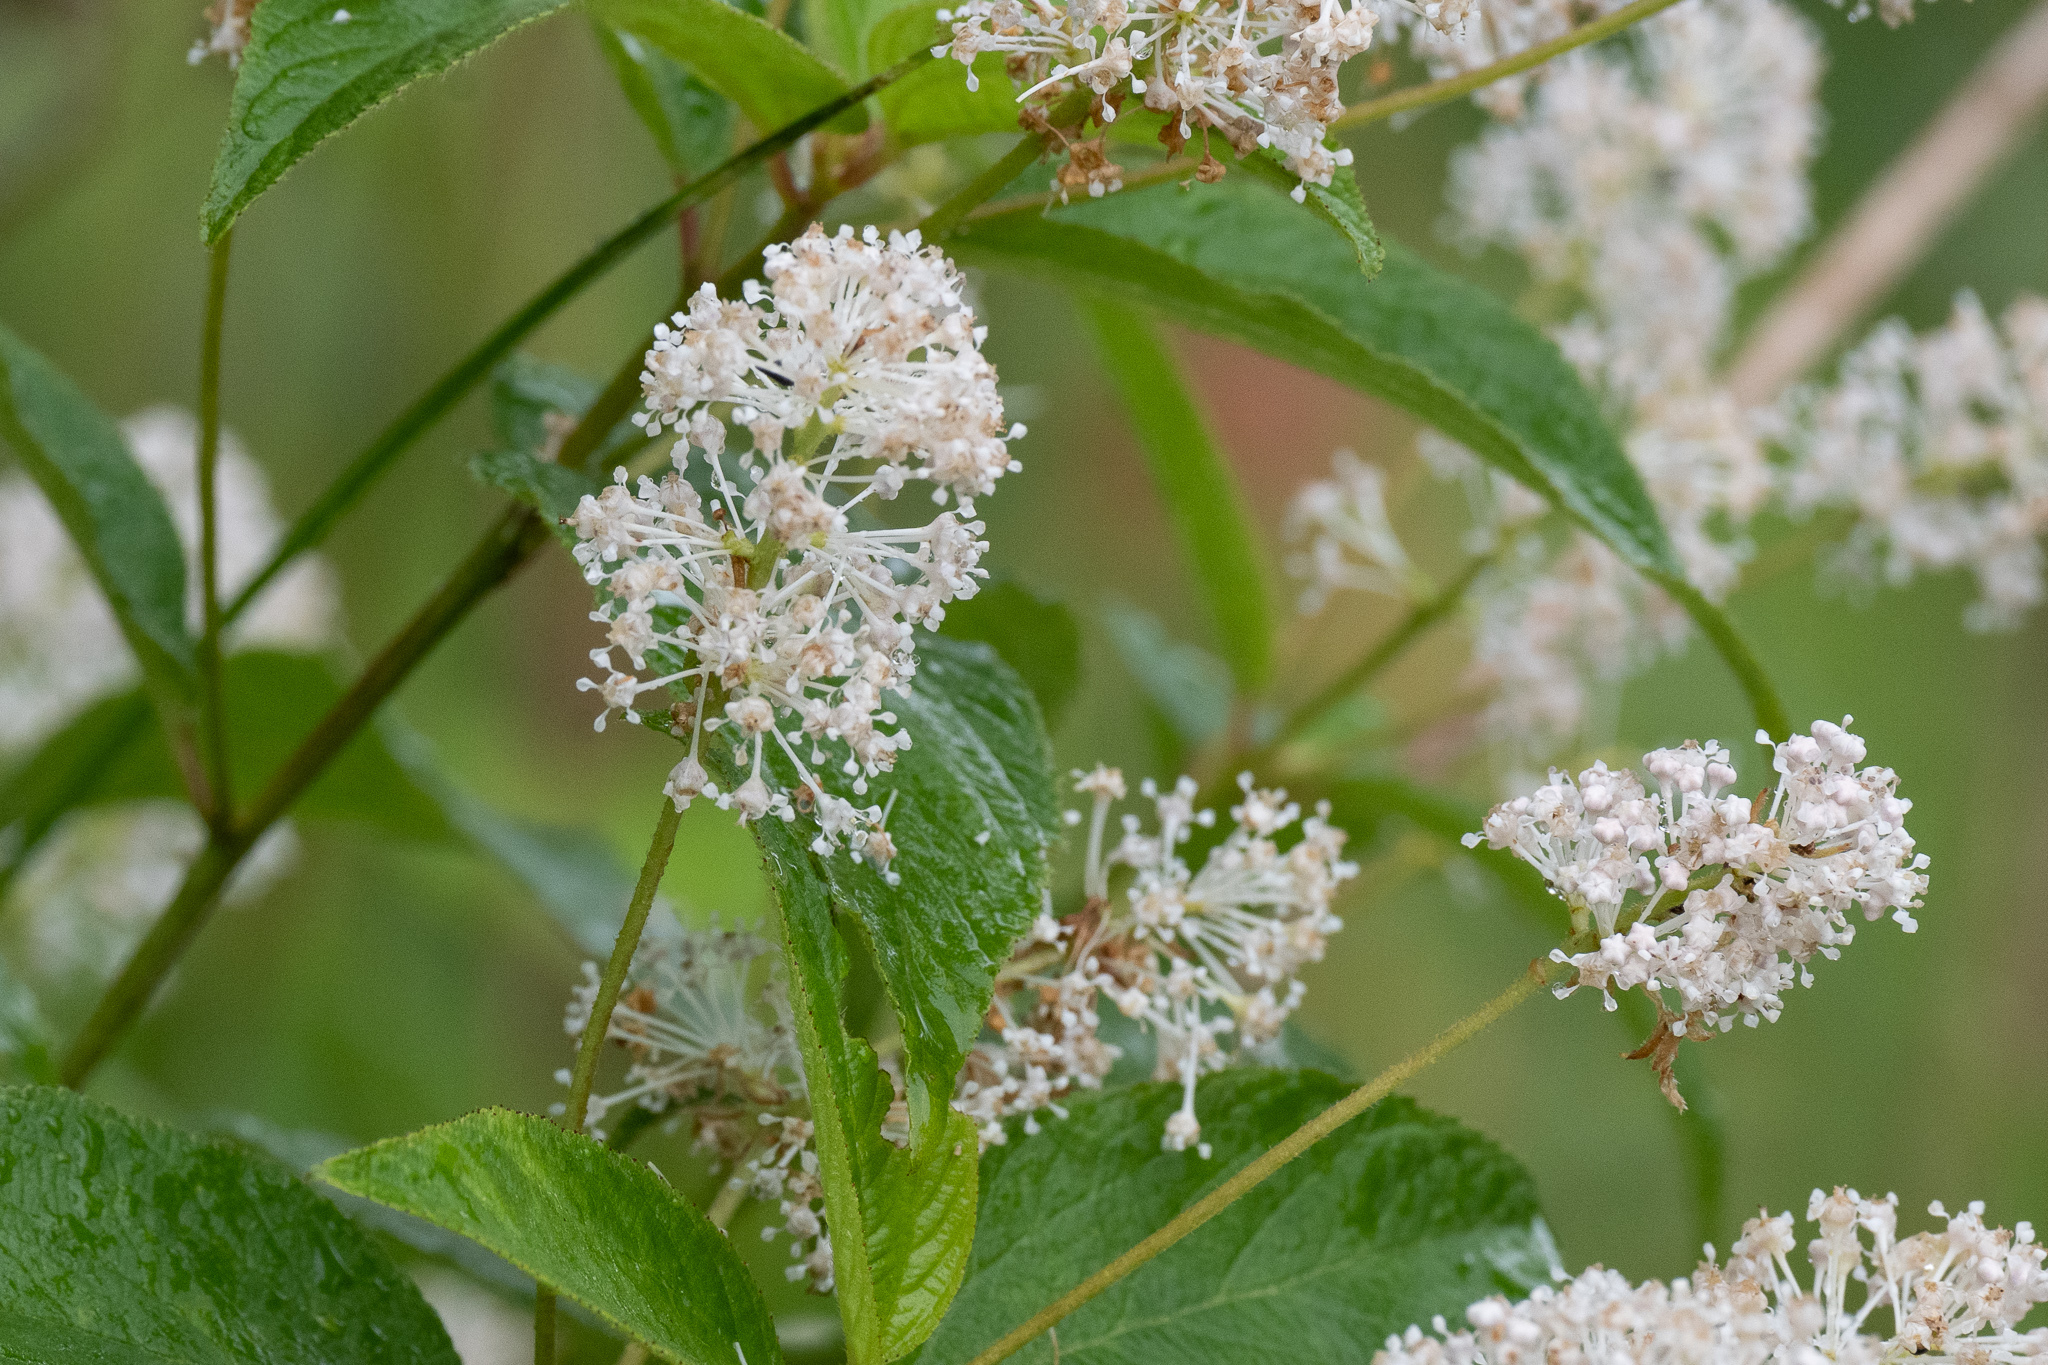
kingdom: Plantae
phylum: Tracheophyta
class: Magnoliopsida
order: Rosales
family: Rhamnaceae
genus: Ceanothus
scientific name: Ceanothus americanus
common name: Redroot
